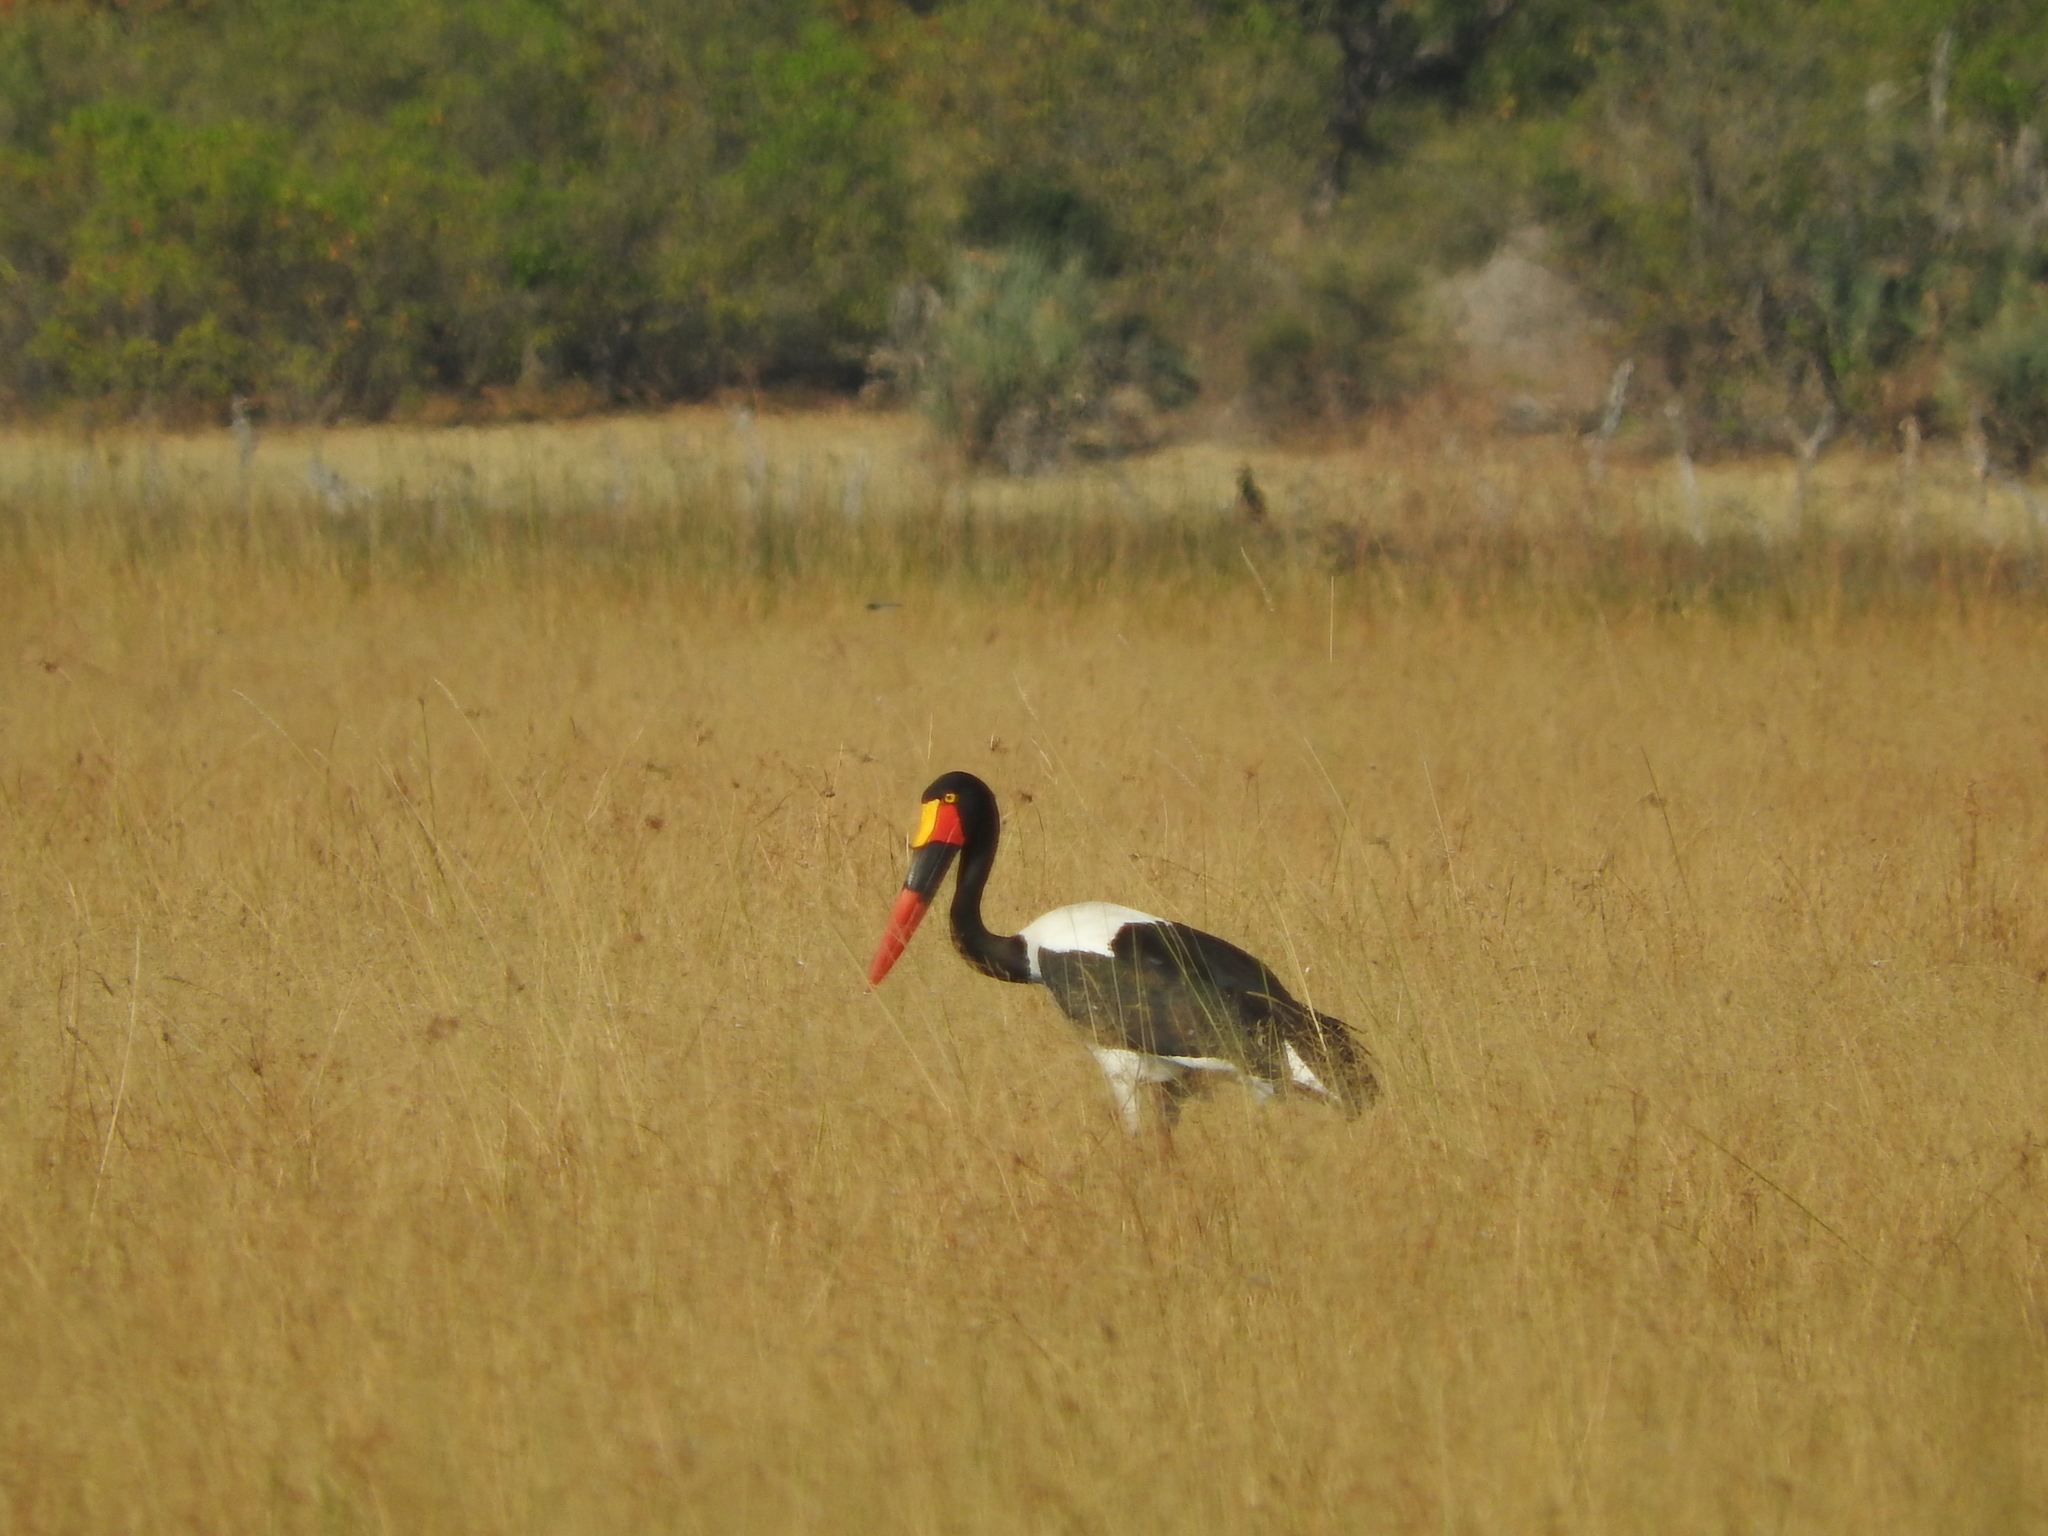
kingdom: Animalia
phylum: Chordata
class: Aves
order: Ciconiiformes
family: Ciconiidae
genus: Ephippiorhynchus
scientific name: Ephippiorhynchus senegalensis
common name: Saddle-billed stork
